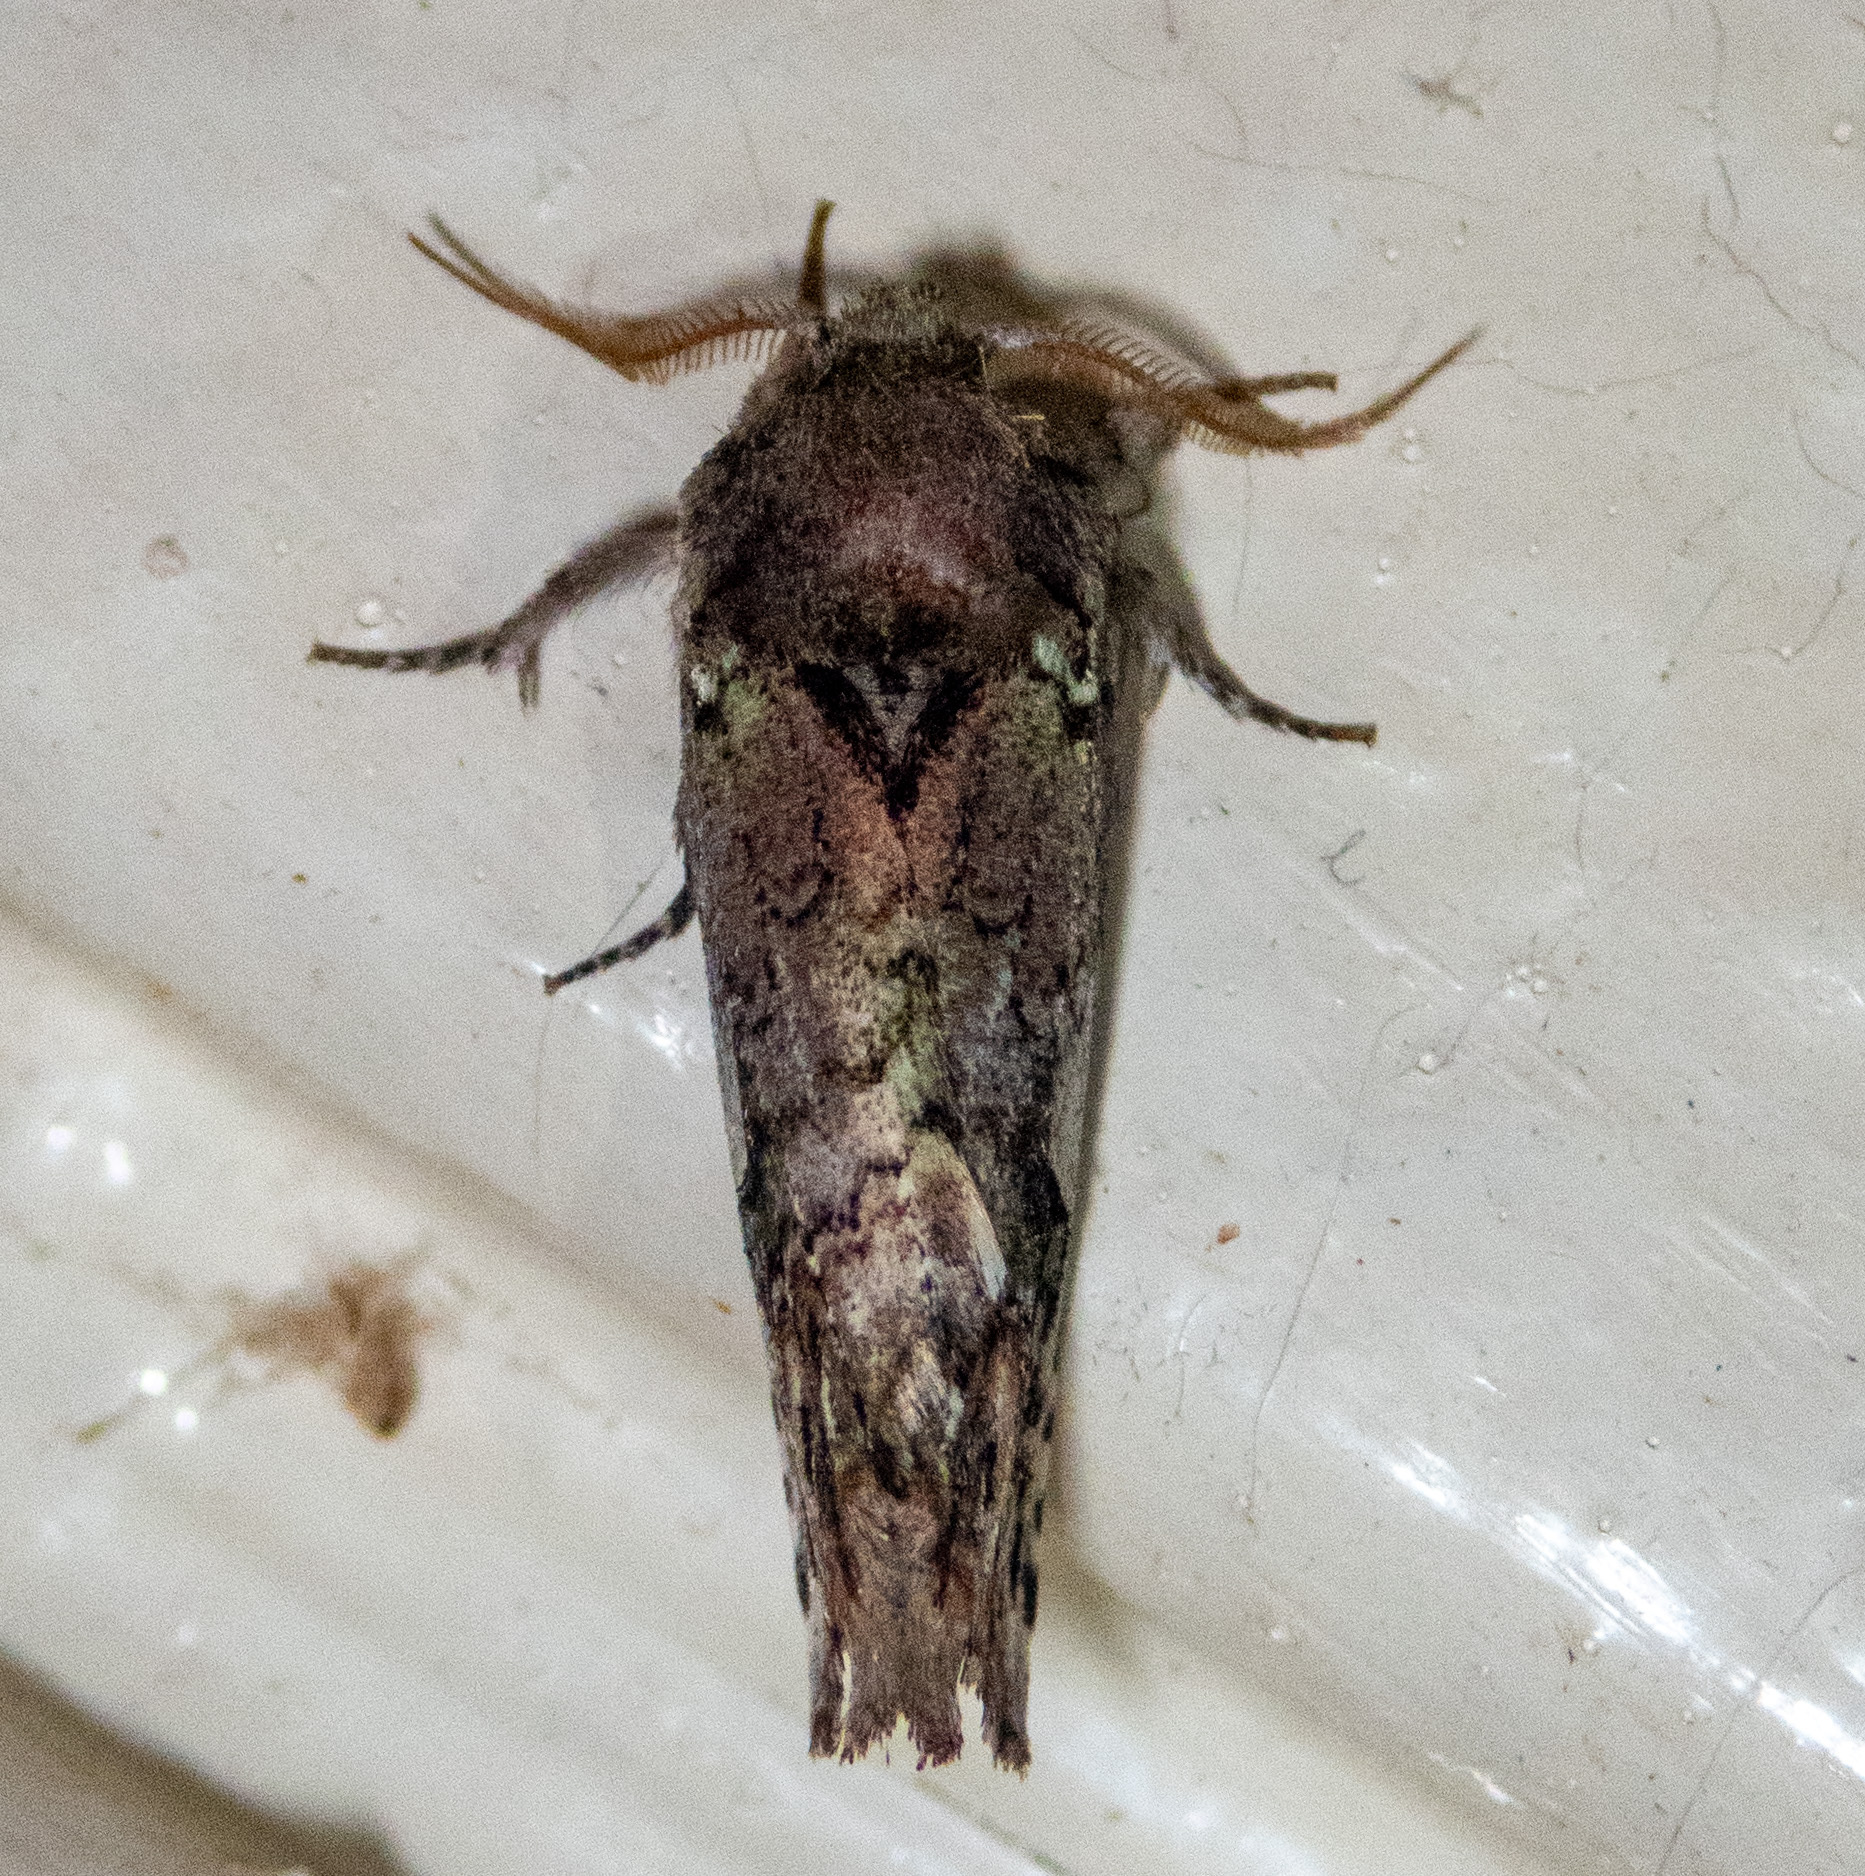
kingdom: Animalia
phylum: Arthropoda
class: Insecta
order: Lepidoptera
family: Notodontidae
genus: Schizura
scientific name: Schizura
